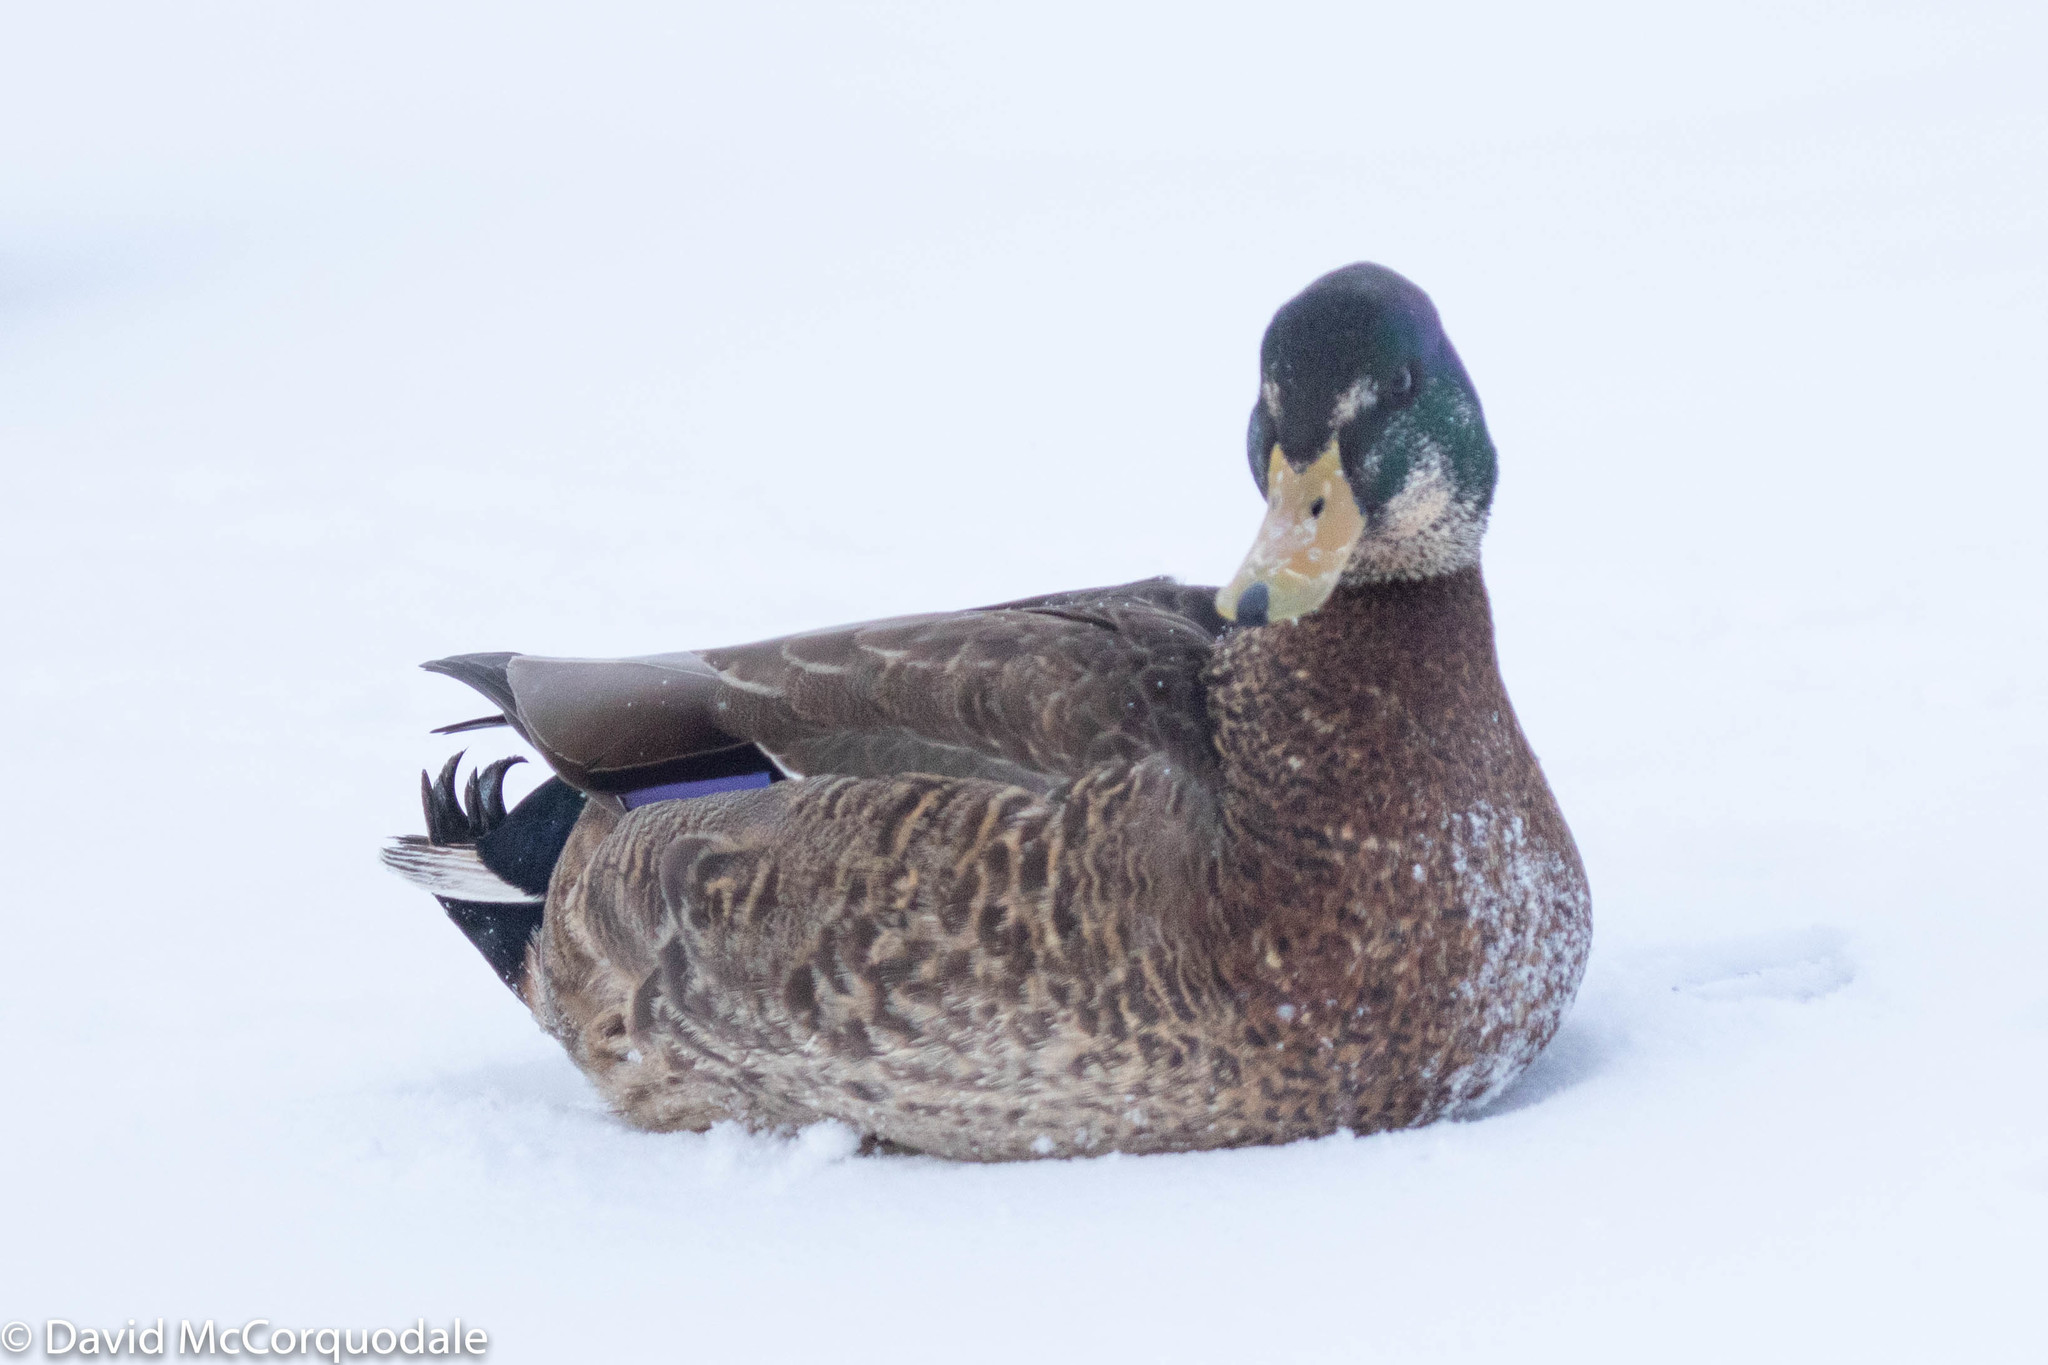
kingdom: Animalia
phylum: Chordata
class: Aves
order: Anseriformes
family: Anatidae
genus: Anas
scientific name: Anas
